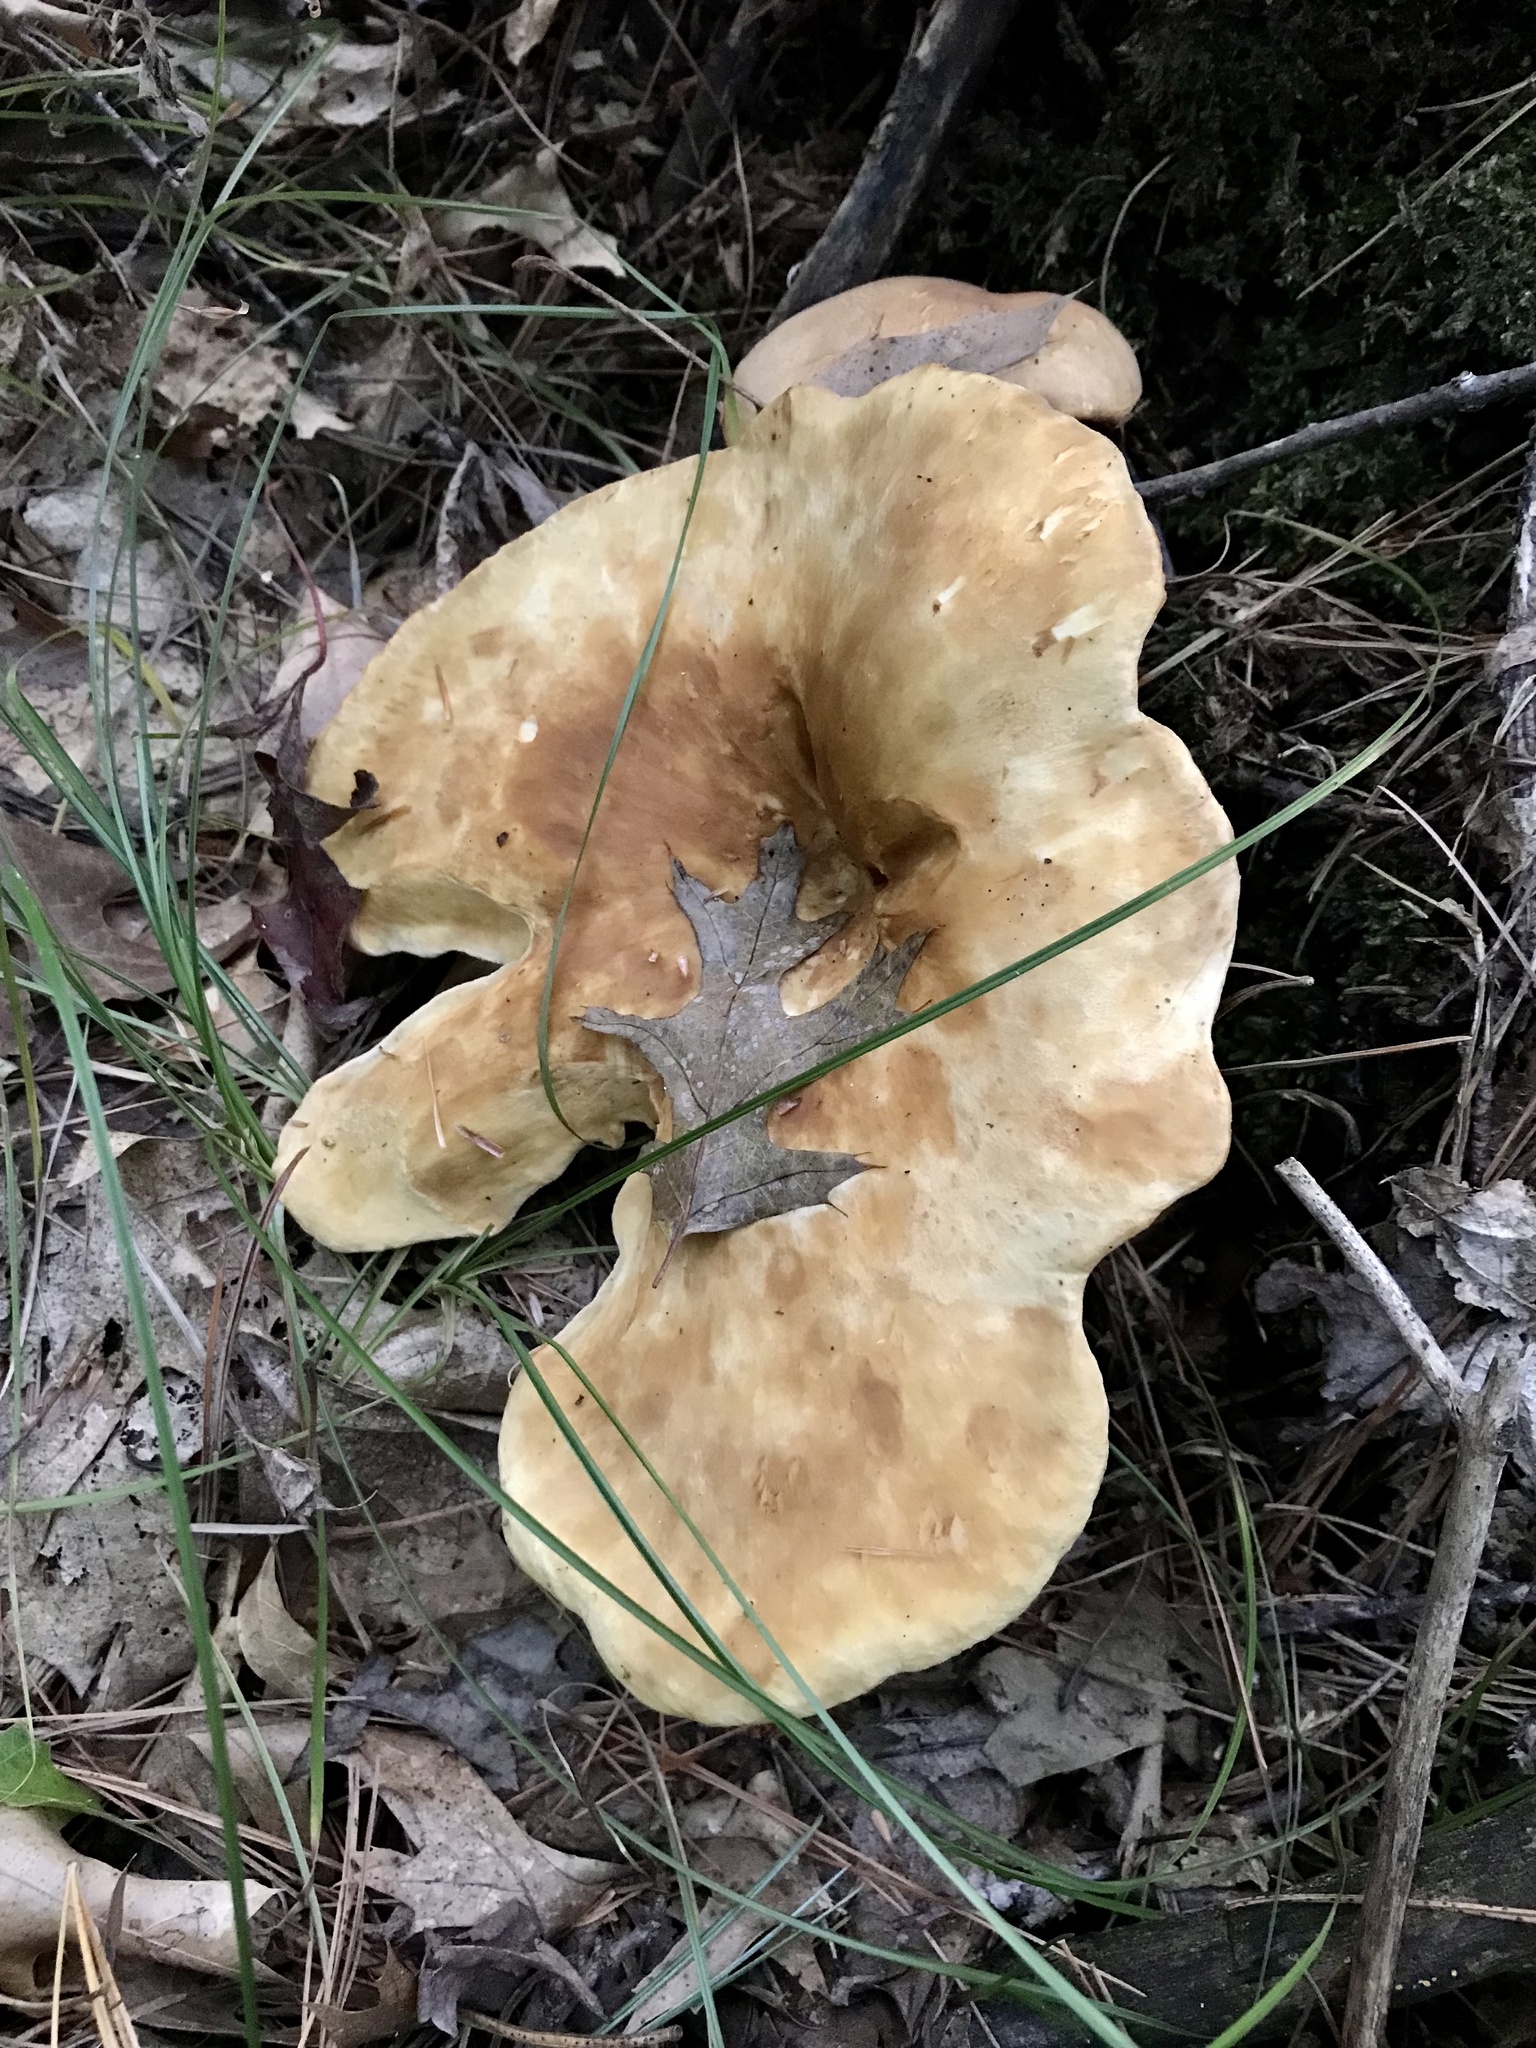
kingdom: Fungi
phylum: Basidiomycota
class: Agaricomycetes
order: Boletales
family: Tapinellaceae
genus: Tapinella
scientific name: Tapinella atrotomentosa
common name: Velvet rollrim
